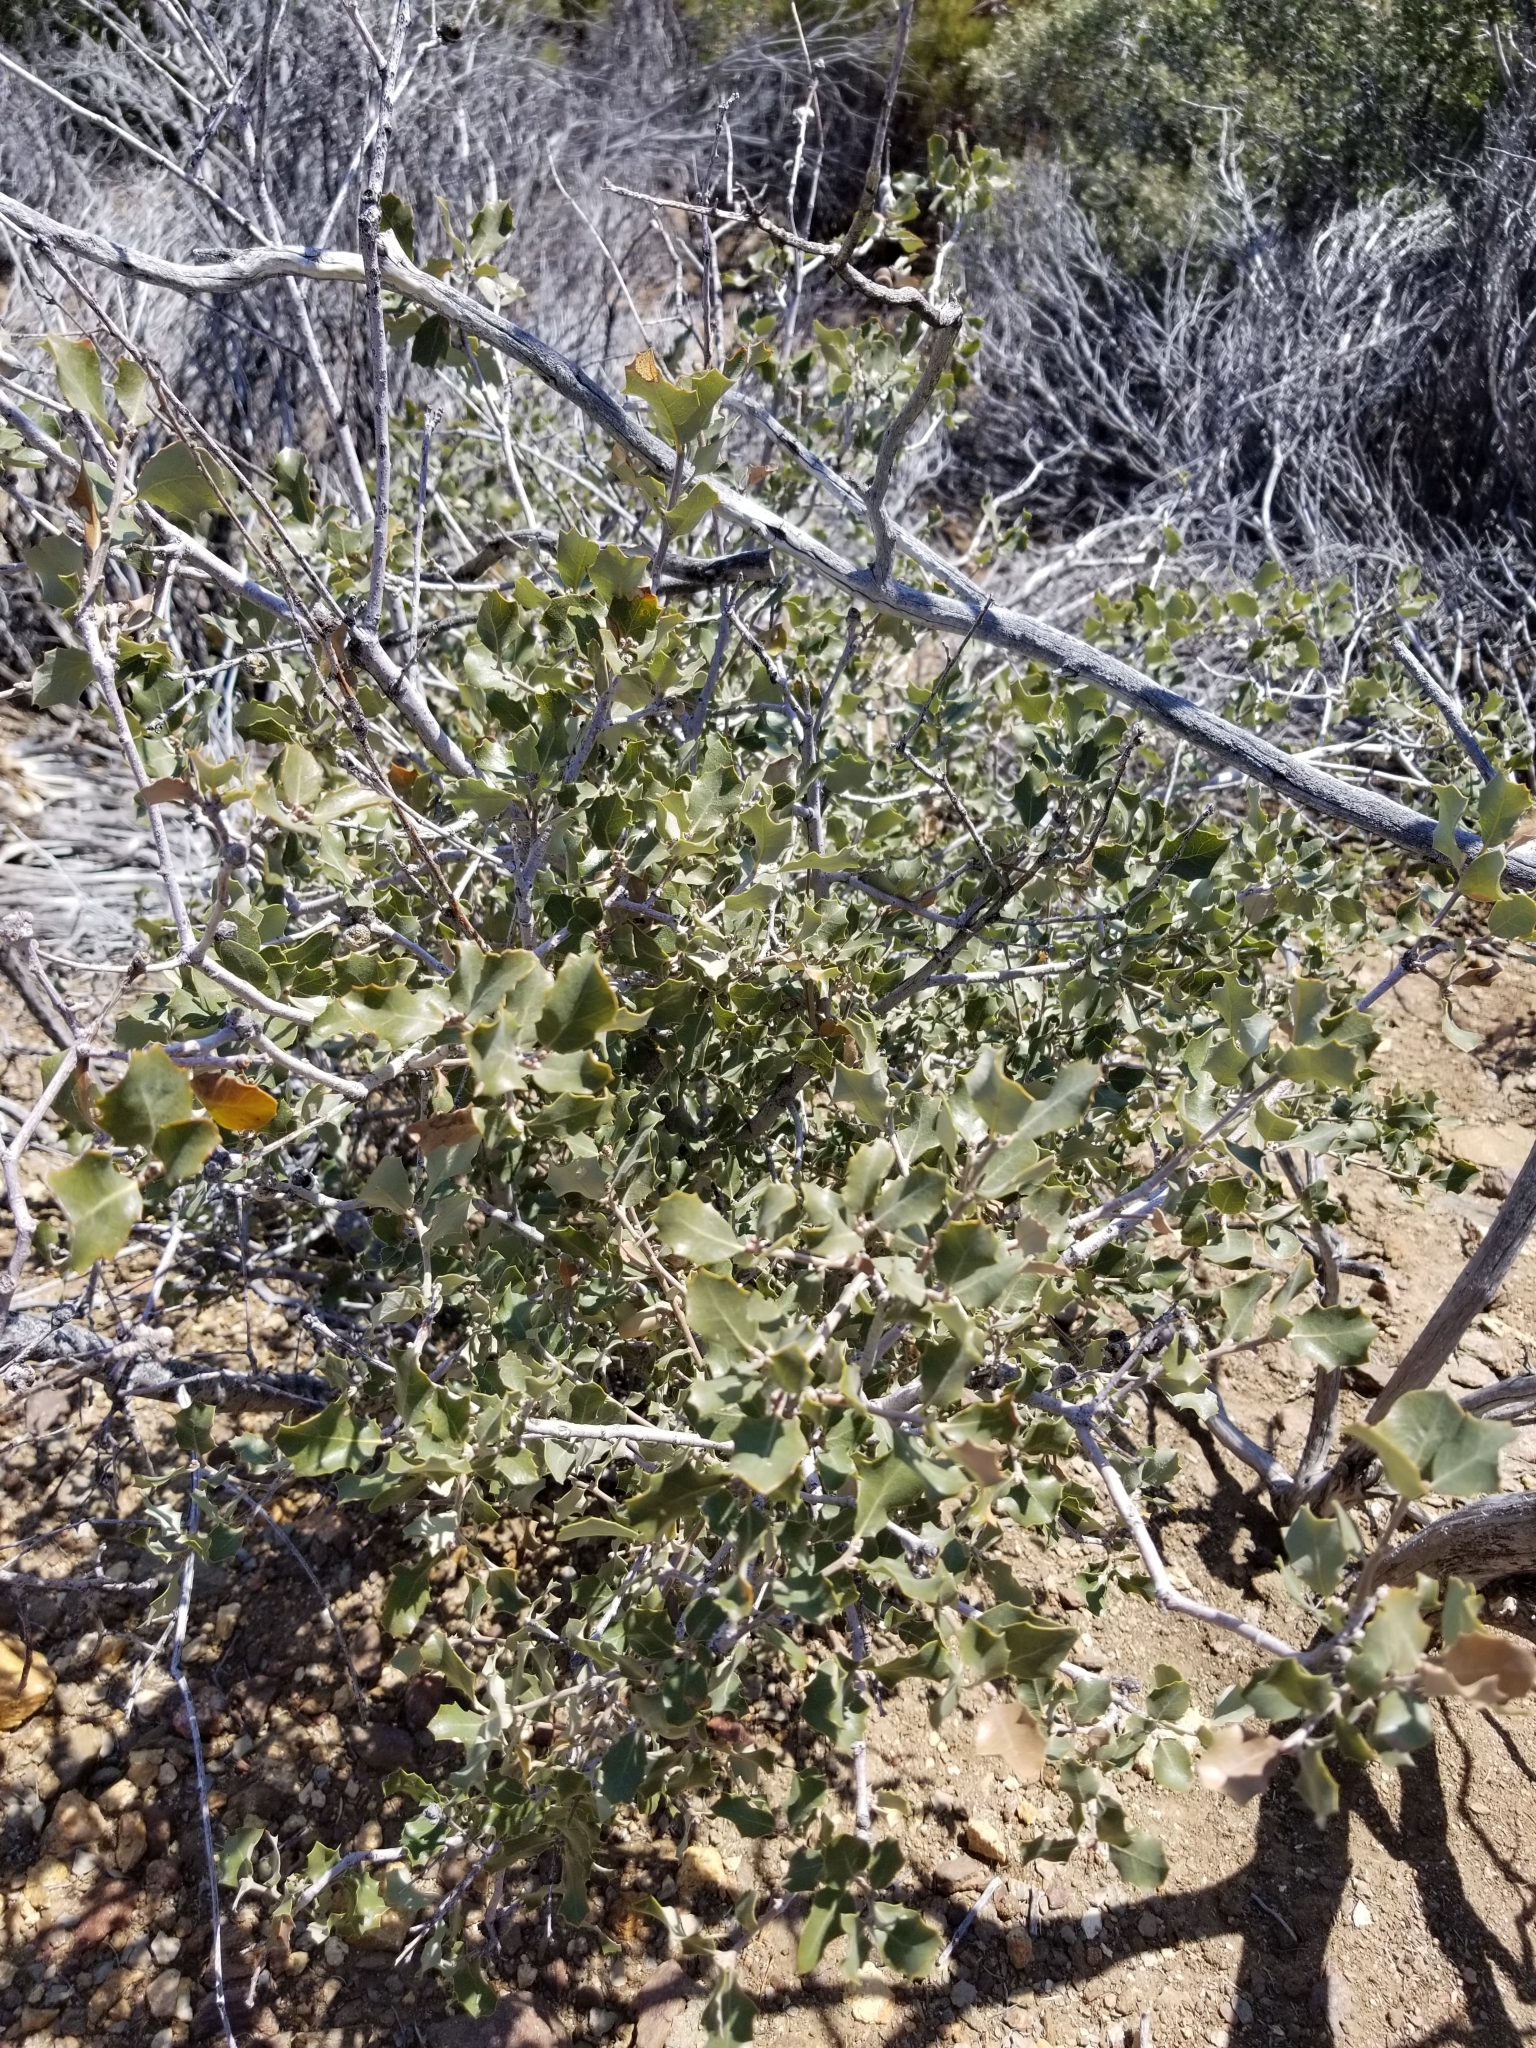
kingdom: Plantae
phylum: Tracheophyta
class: Magnoliopsida
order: Fagales
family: Fagaceae
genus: Quercus
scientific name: Quercus cornelius-mulleri
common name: Muller oak
